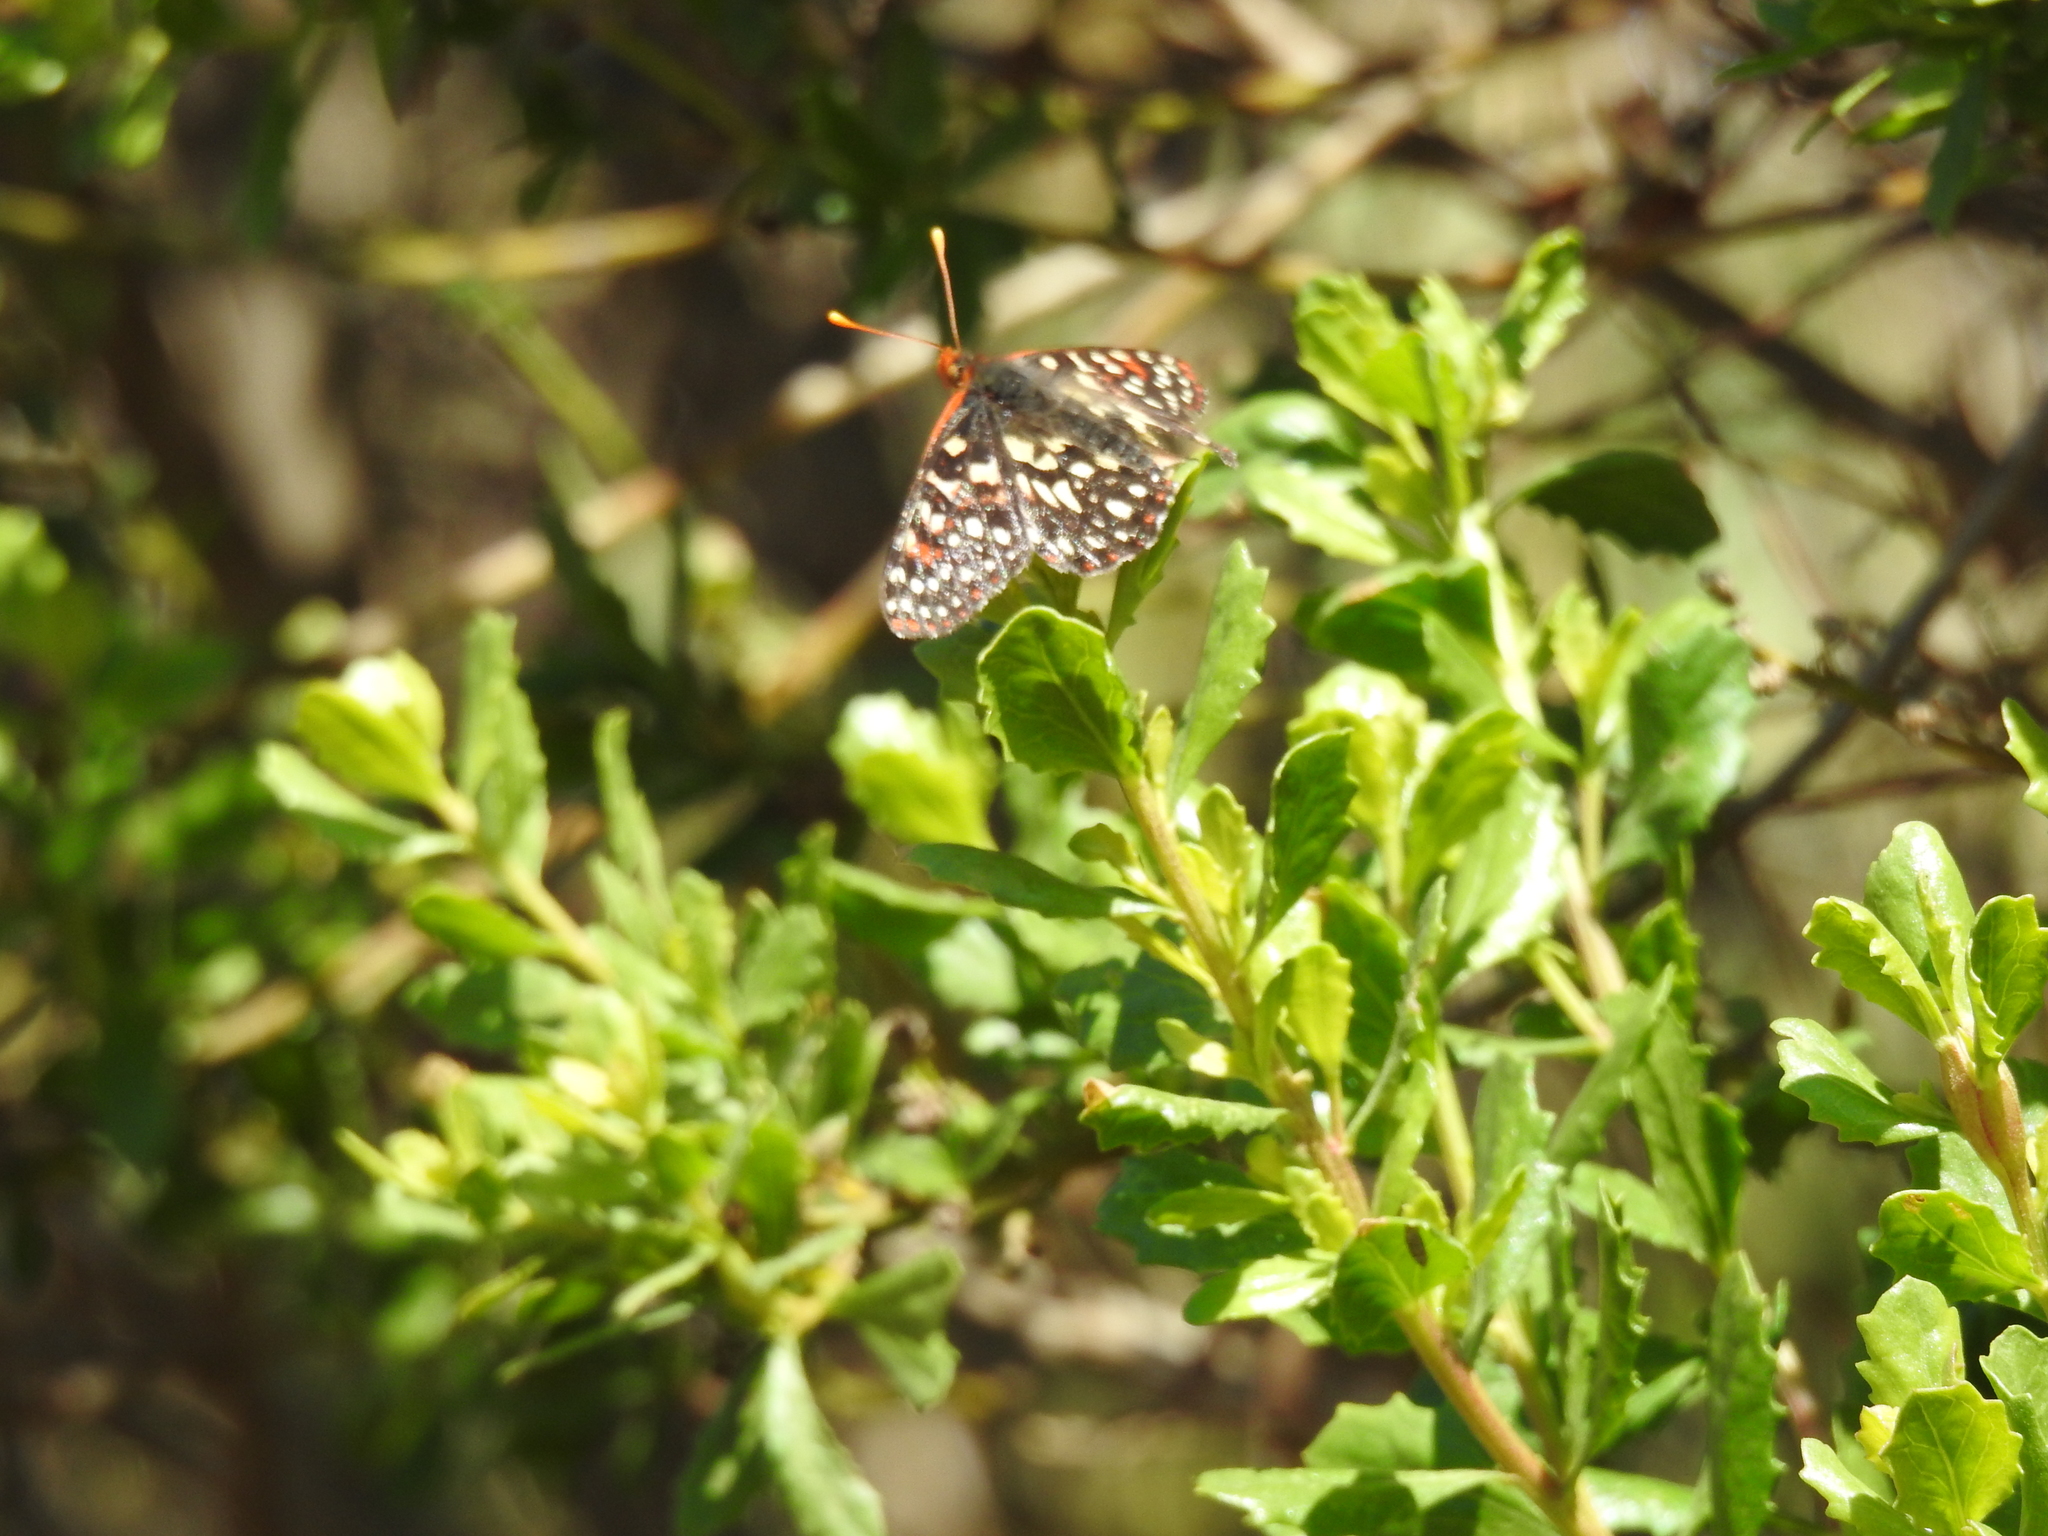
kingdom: Animalia
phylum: Arthropoda
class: Insecta
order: Lepidoptera
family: Nymphalidae
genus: Occidryas
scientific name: Occidryas chalcedona
